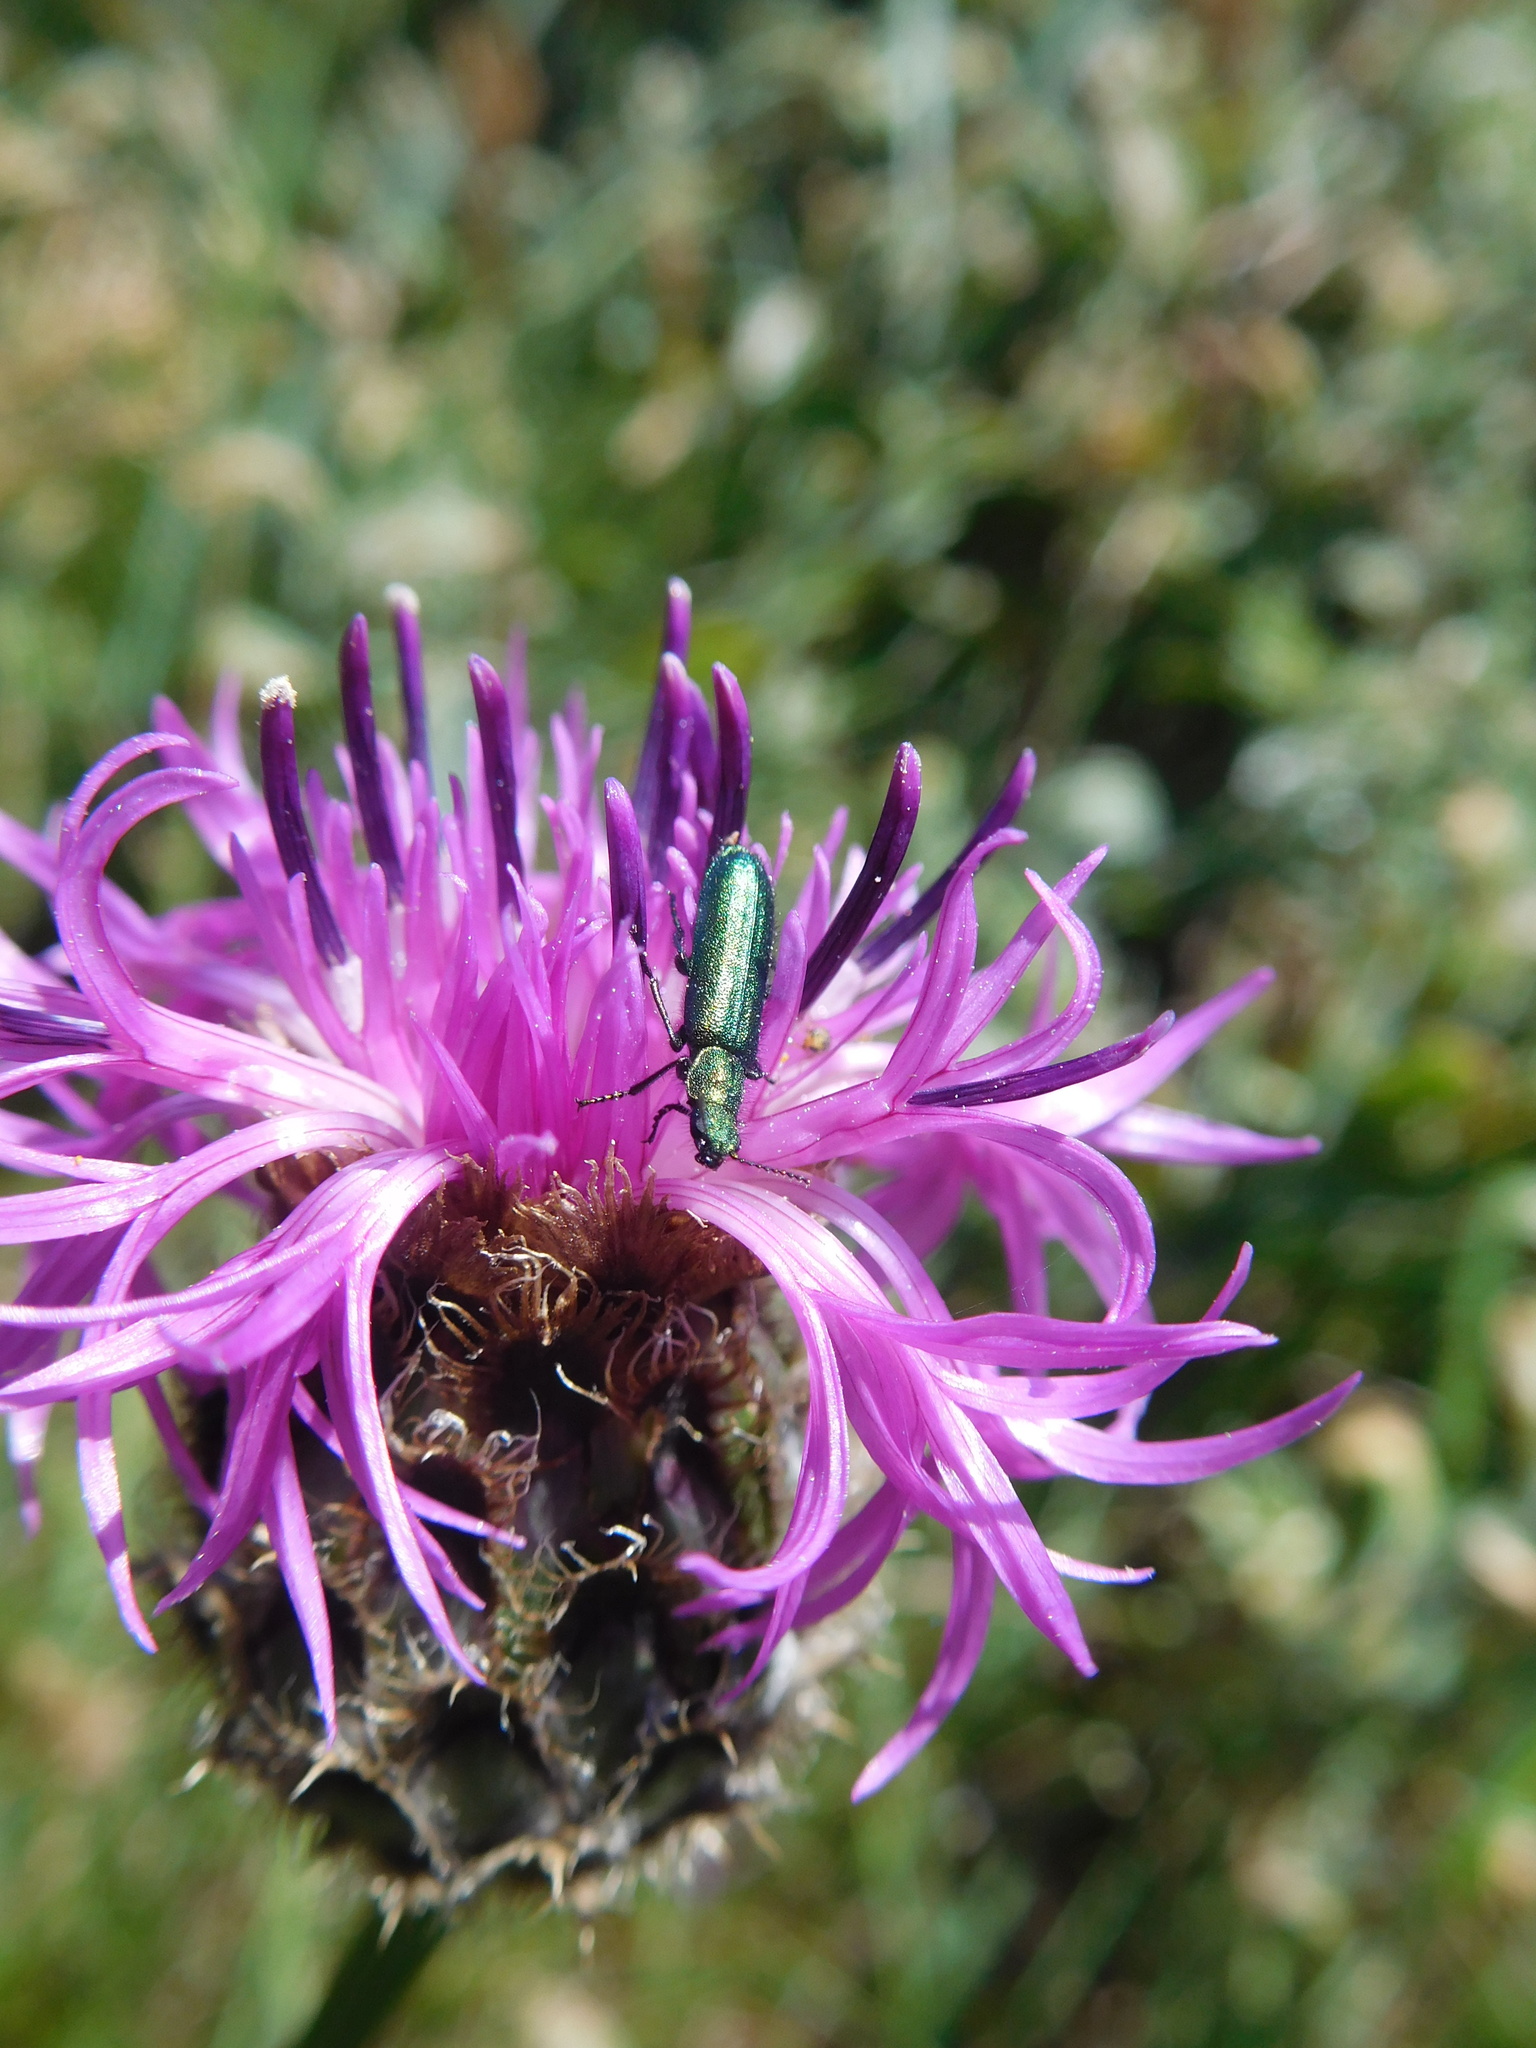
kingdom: Animalia
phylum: Arthropoda
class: Insecta
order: Coleoptera
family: Dasytidae
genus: Psilothrix
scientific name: Psilothrix viridicoerulea
